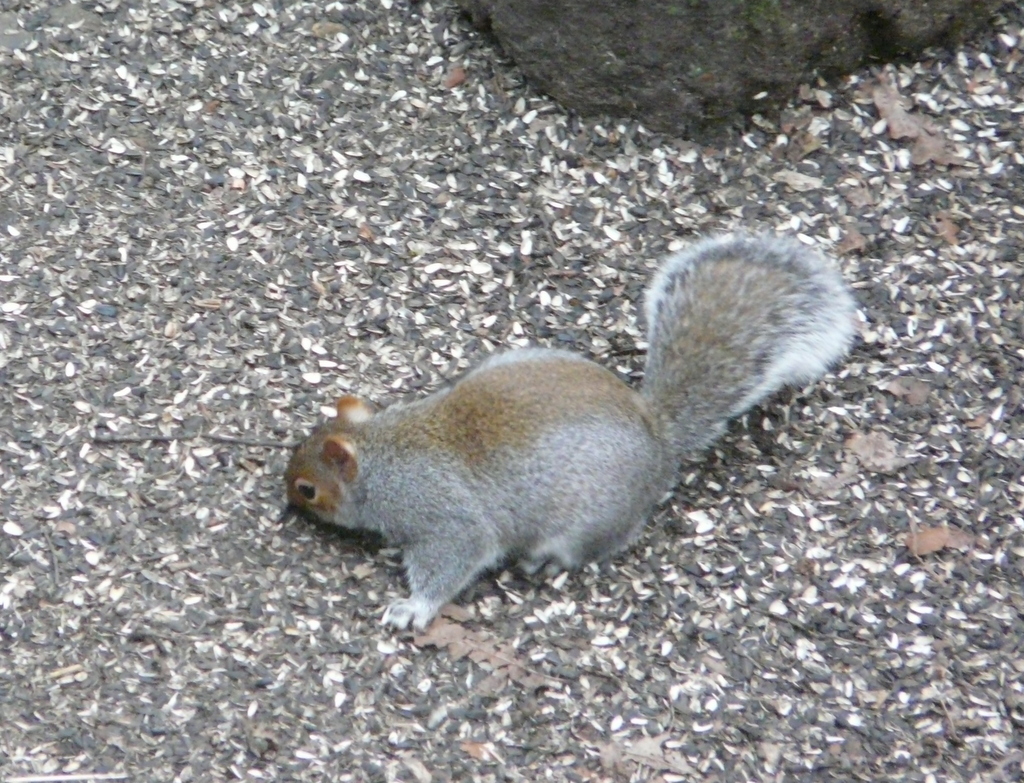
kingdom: Animalia
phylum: Chordata
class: Mammalia
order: Rodentia
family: Sciuridae
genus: Sciurus
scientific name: Sciurus carolinensis
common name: Eastern gray squirrel
